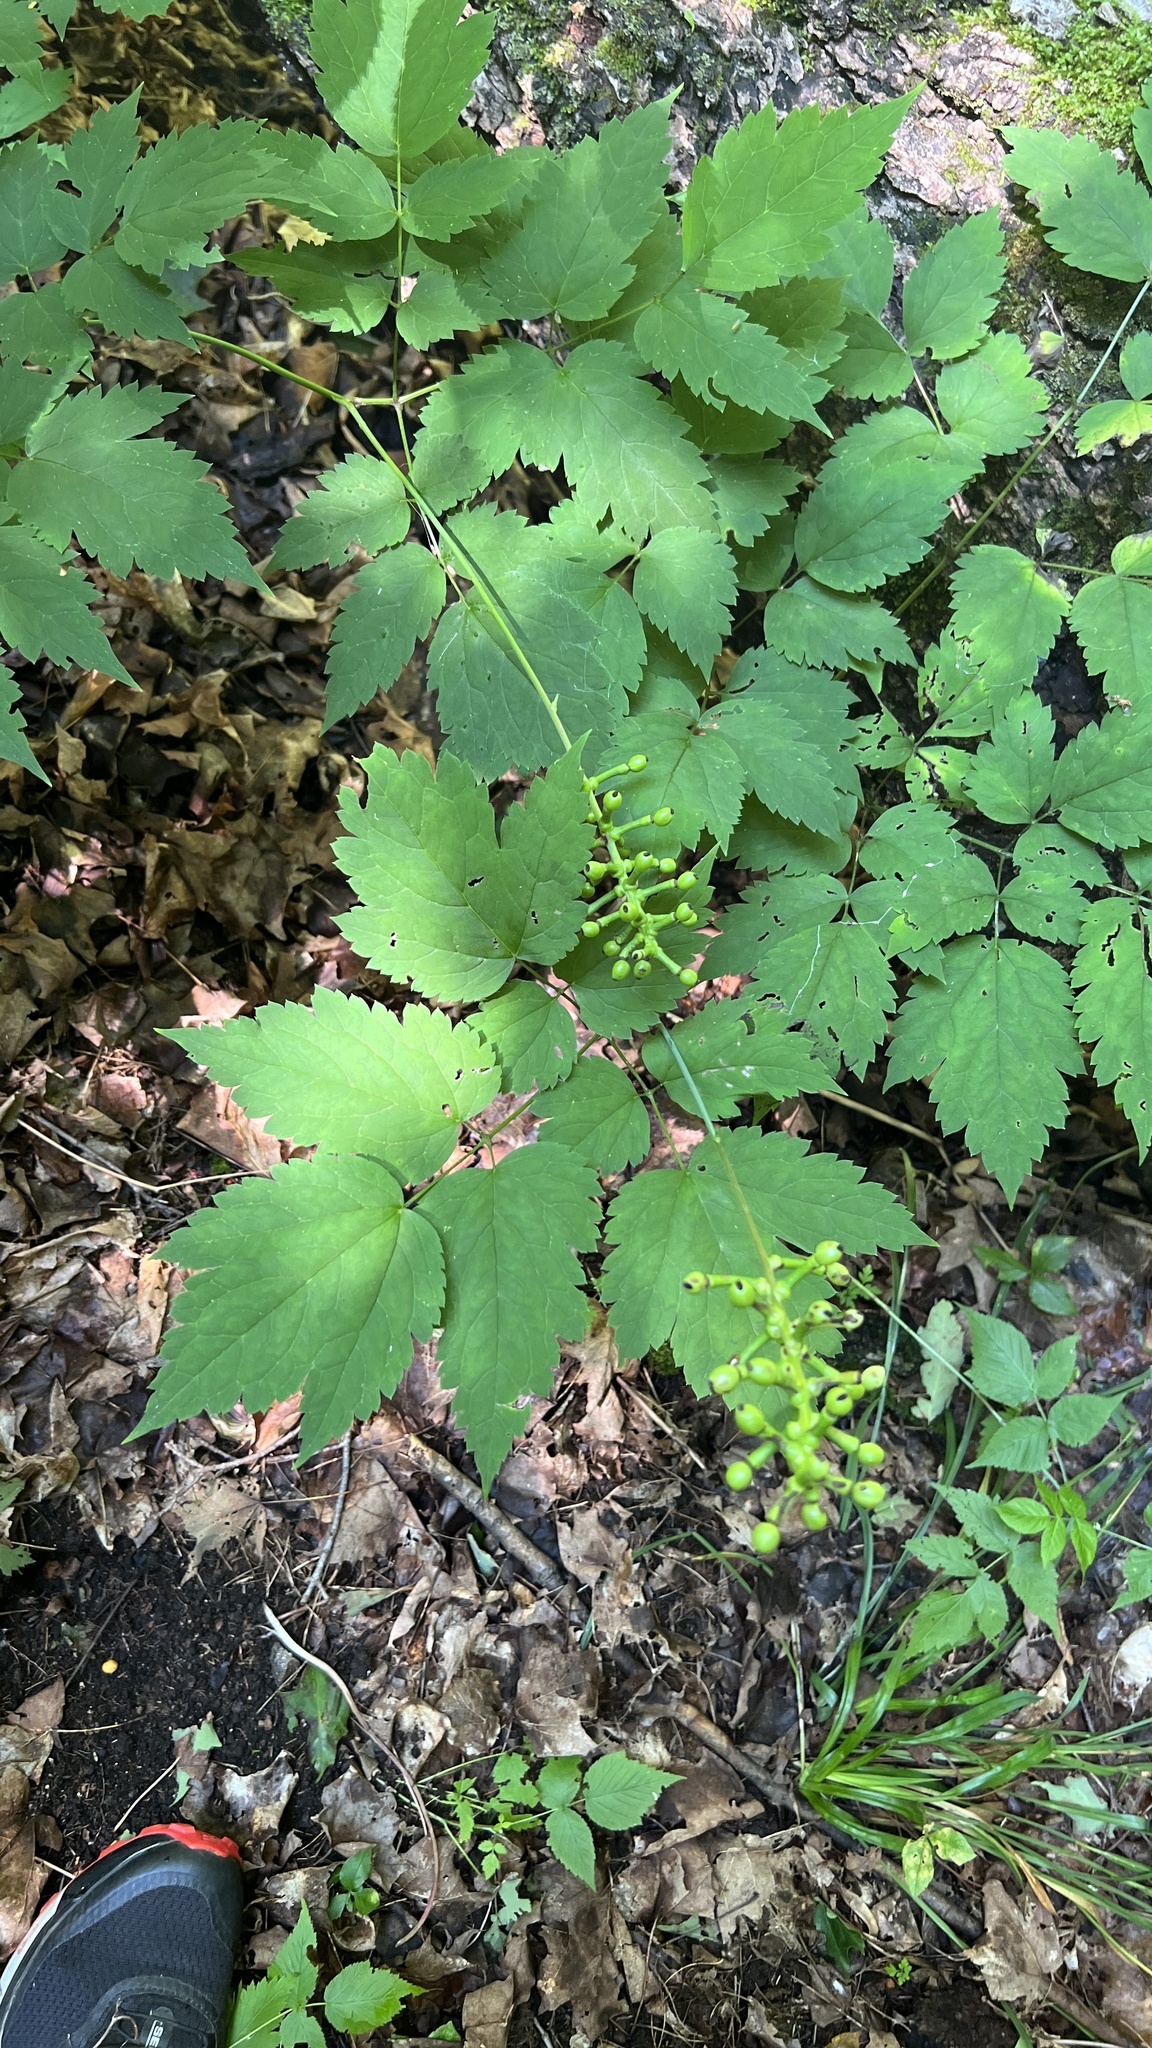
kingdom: Plantae
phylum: Tracheophyta
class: Magnoliopsida
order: Ranunculales
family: Ranunculaceae
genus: Actaea
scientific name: Actaea pachypoda
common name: Doll's-eyes
